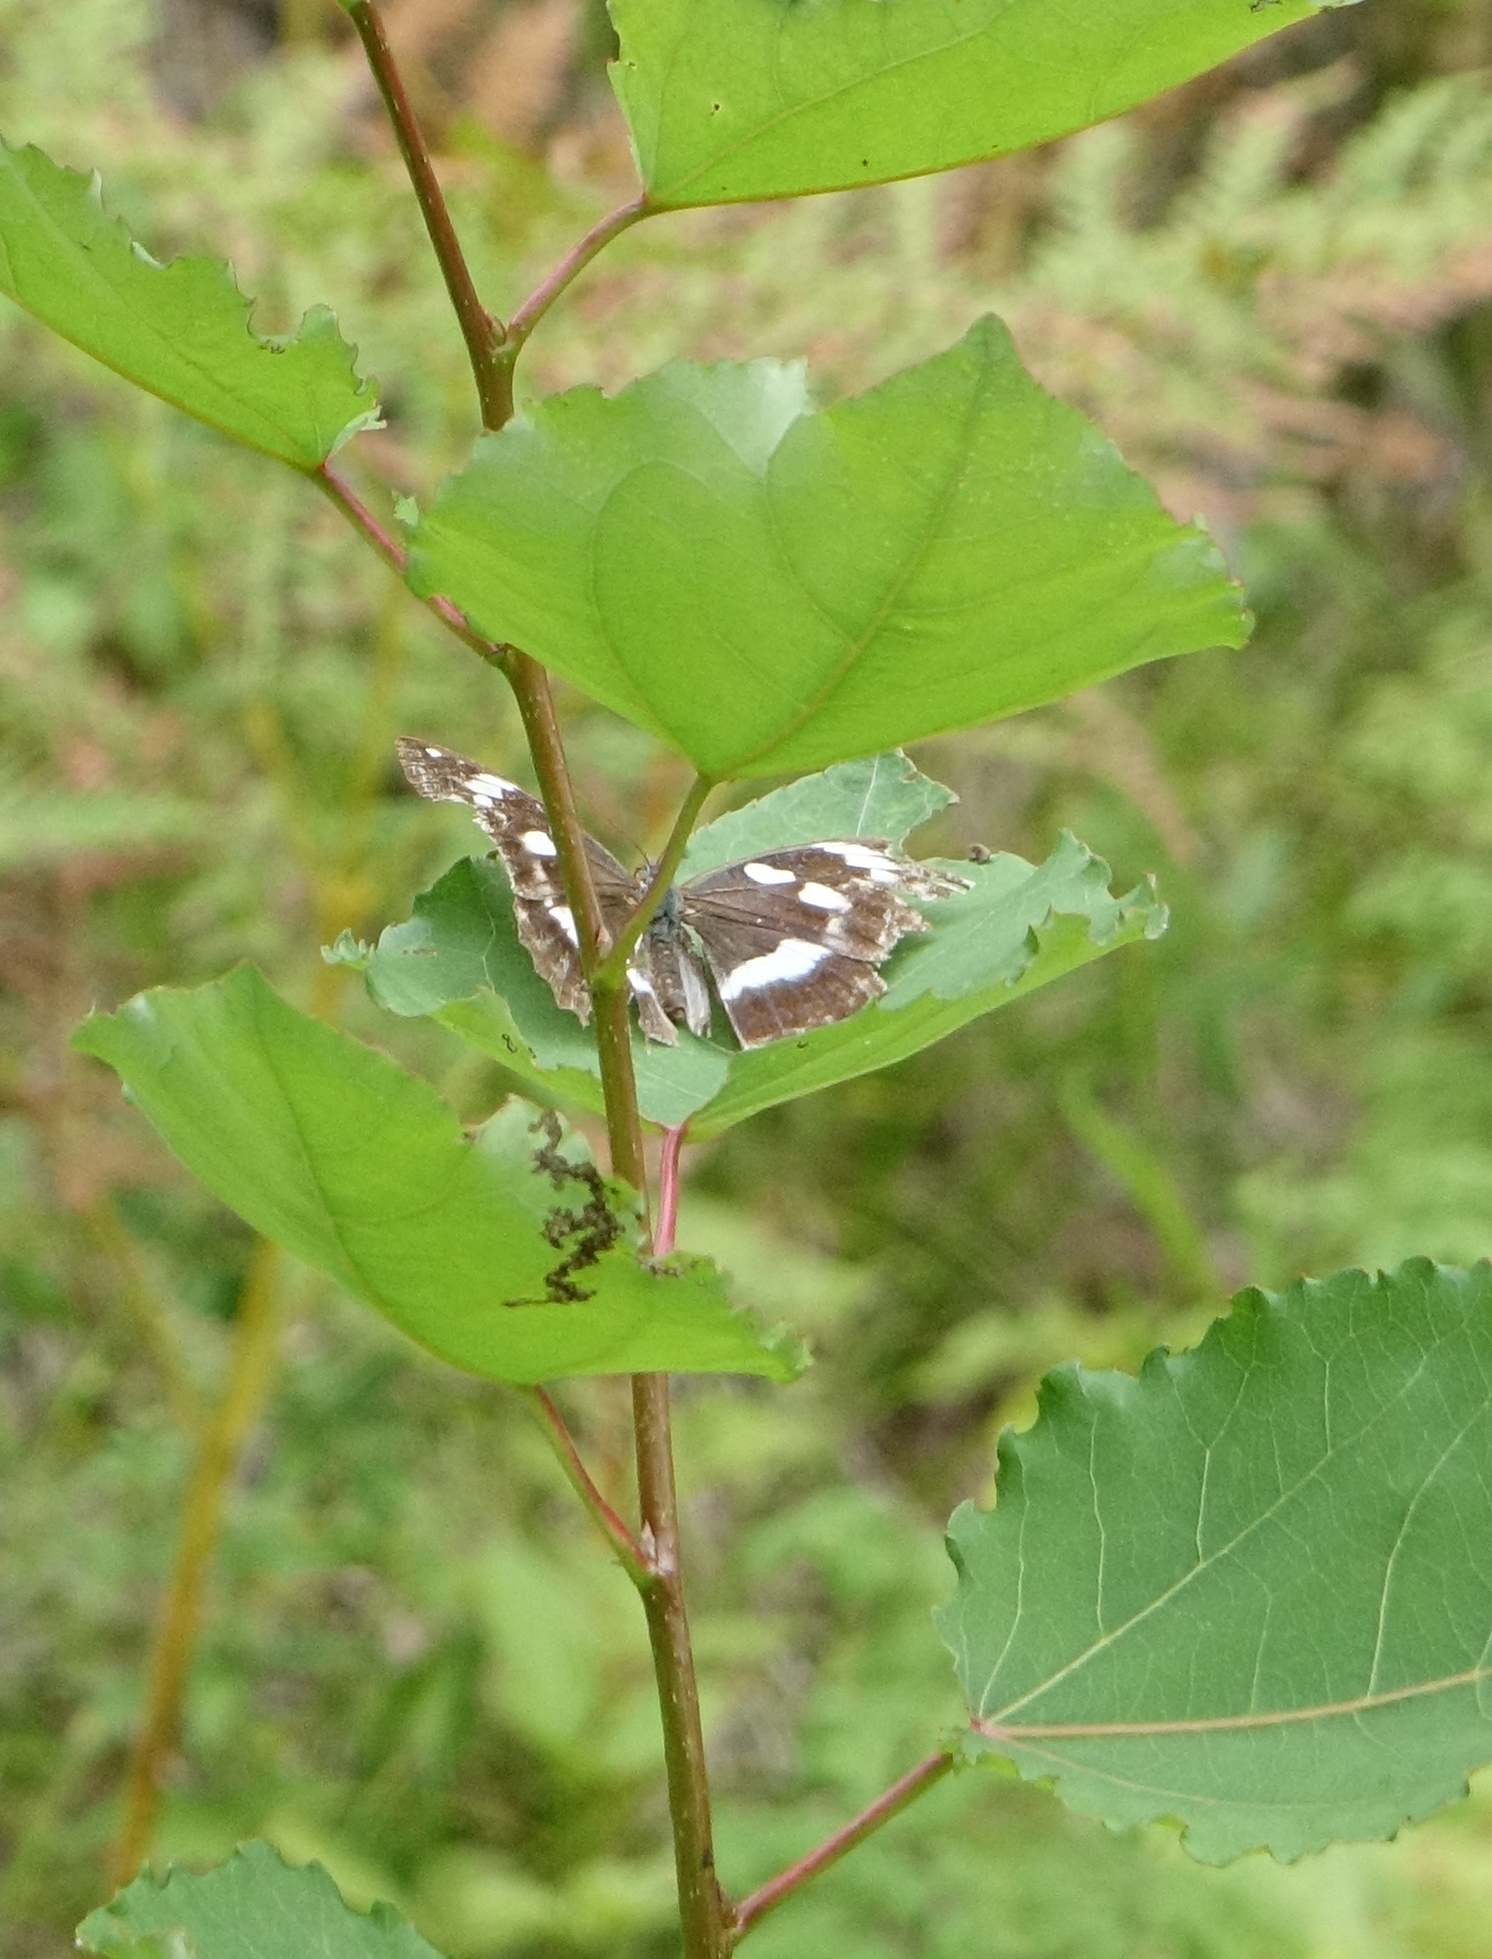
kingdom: Plantae
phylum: Tracheophyta
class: Magnoliopsida
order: Malpighiales
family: Salicaceae
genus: Populus
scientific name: Populus tremula
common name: European aspen
